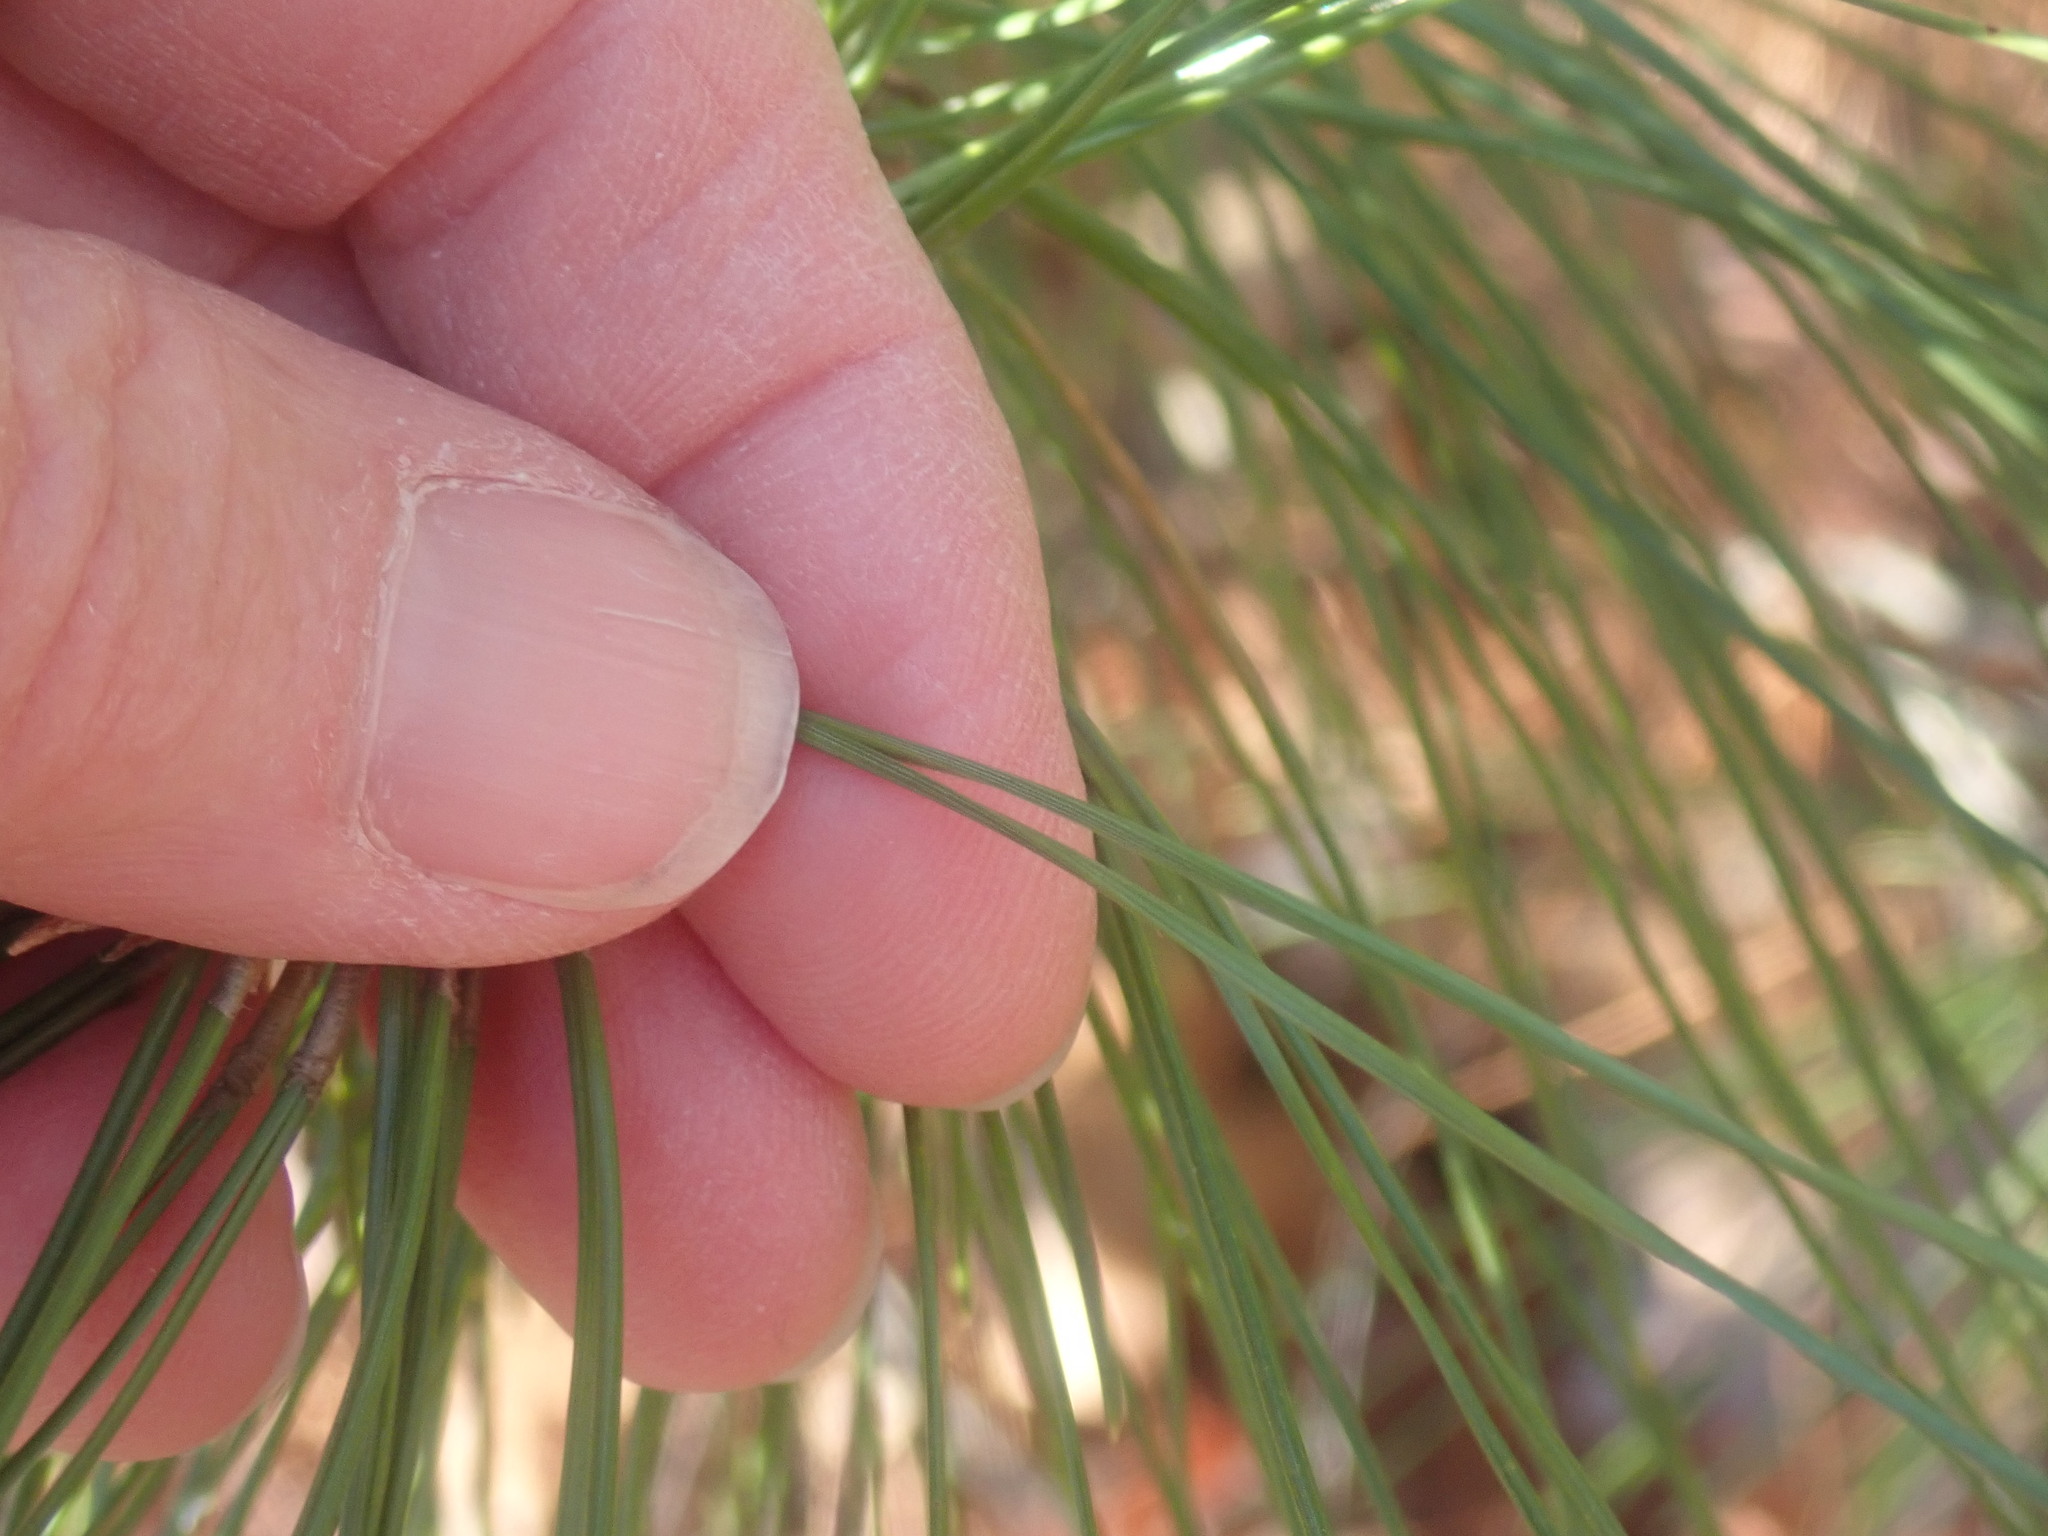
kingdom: Plantae
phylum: Tracheophyta
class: Pinopsida
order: Pinales
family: Pinaceae
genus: Pinus
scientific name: Pinus resinosa
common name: Norway pine
